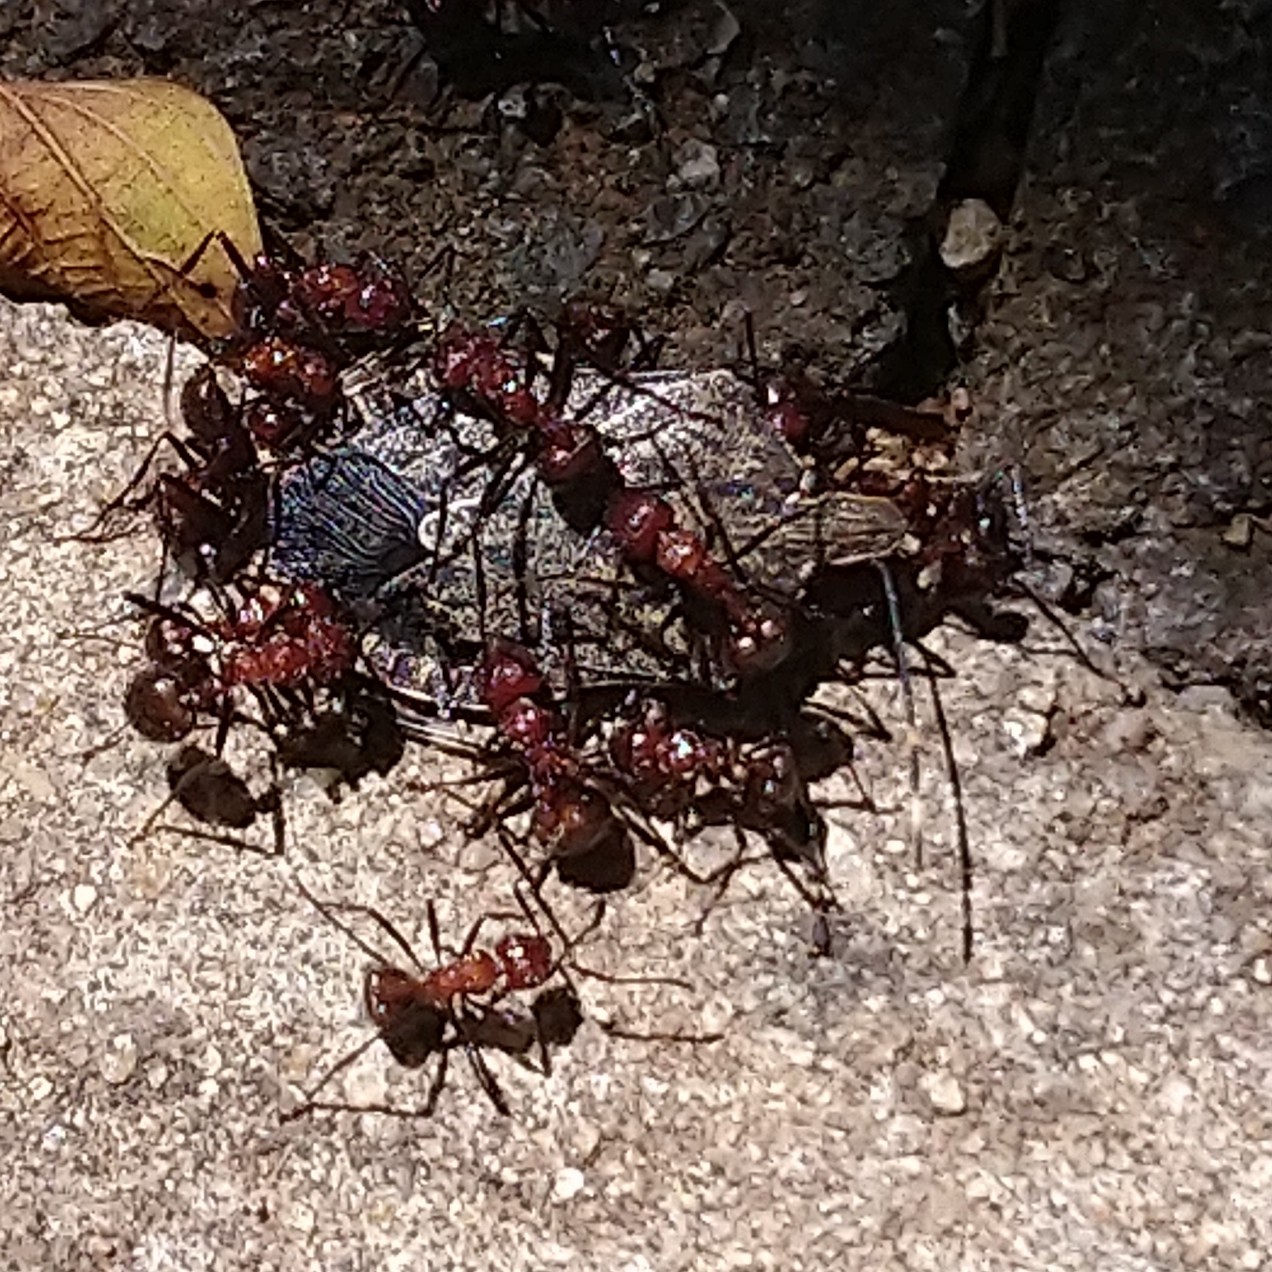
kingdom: Animalia
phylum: Arthropoda
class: Insecta
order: Hymenoptera
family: Formicidae
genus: Myrmicaria
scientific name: Myrmicaria natalensis
